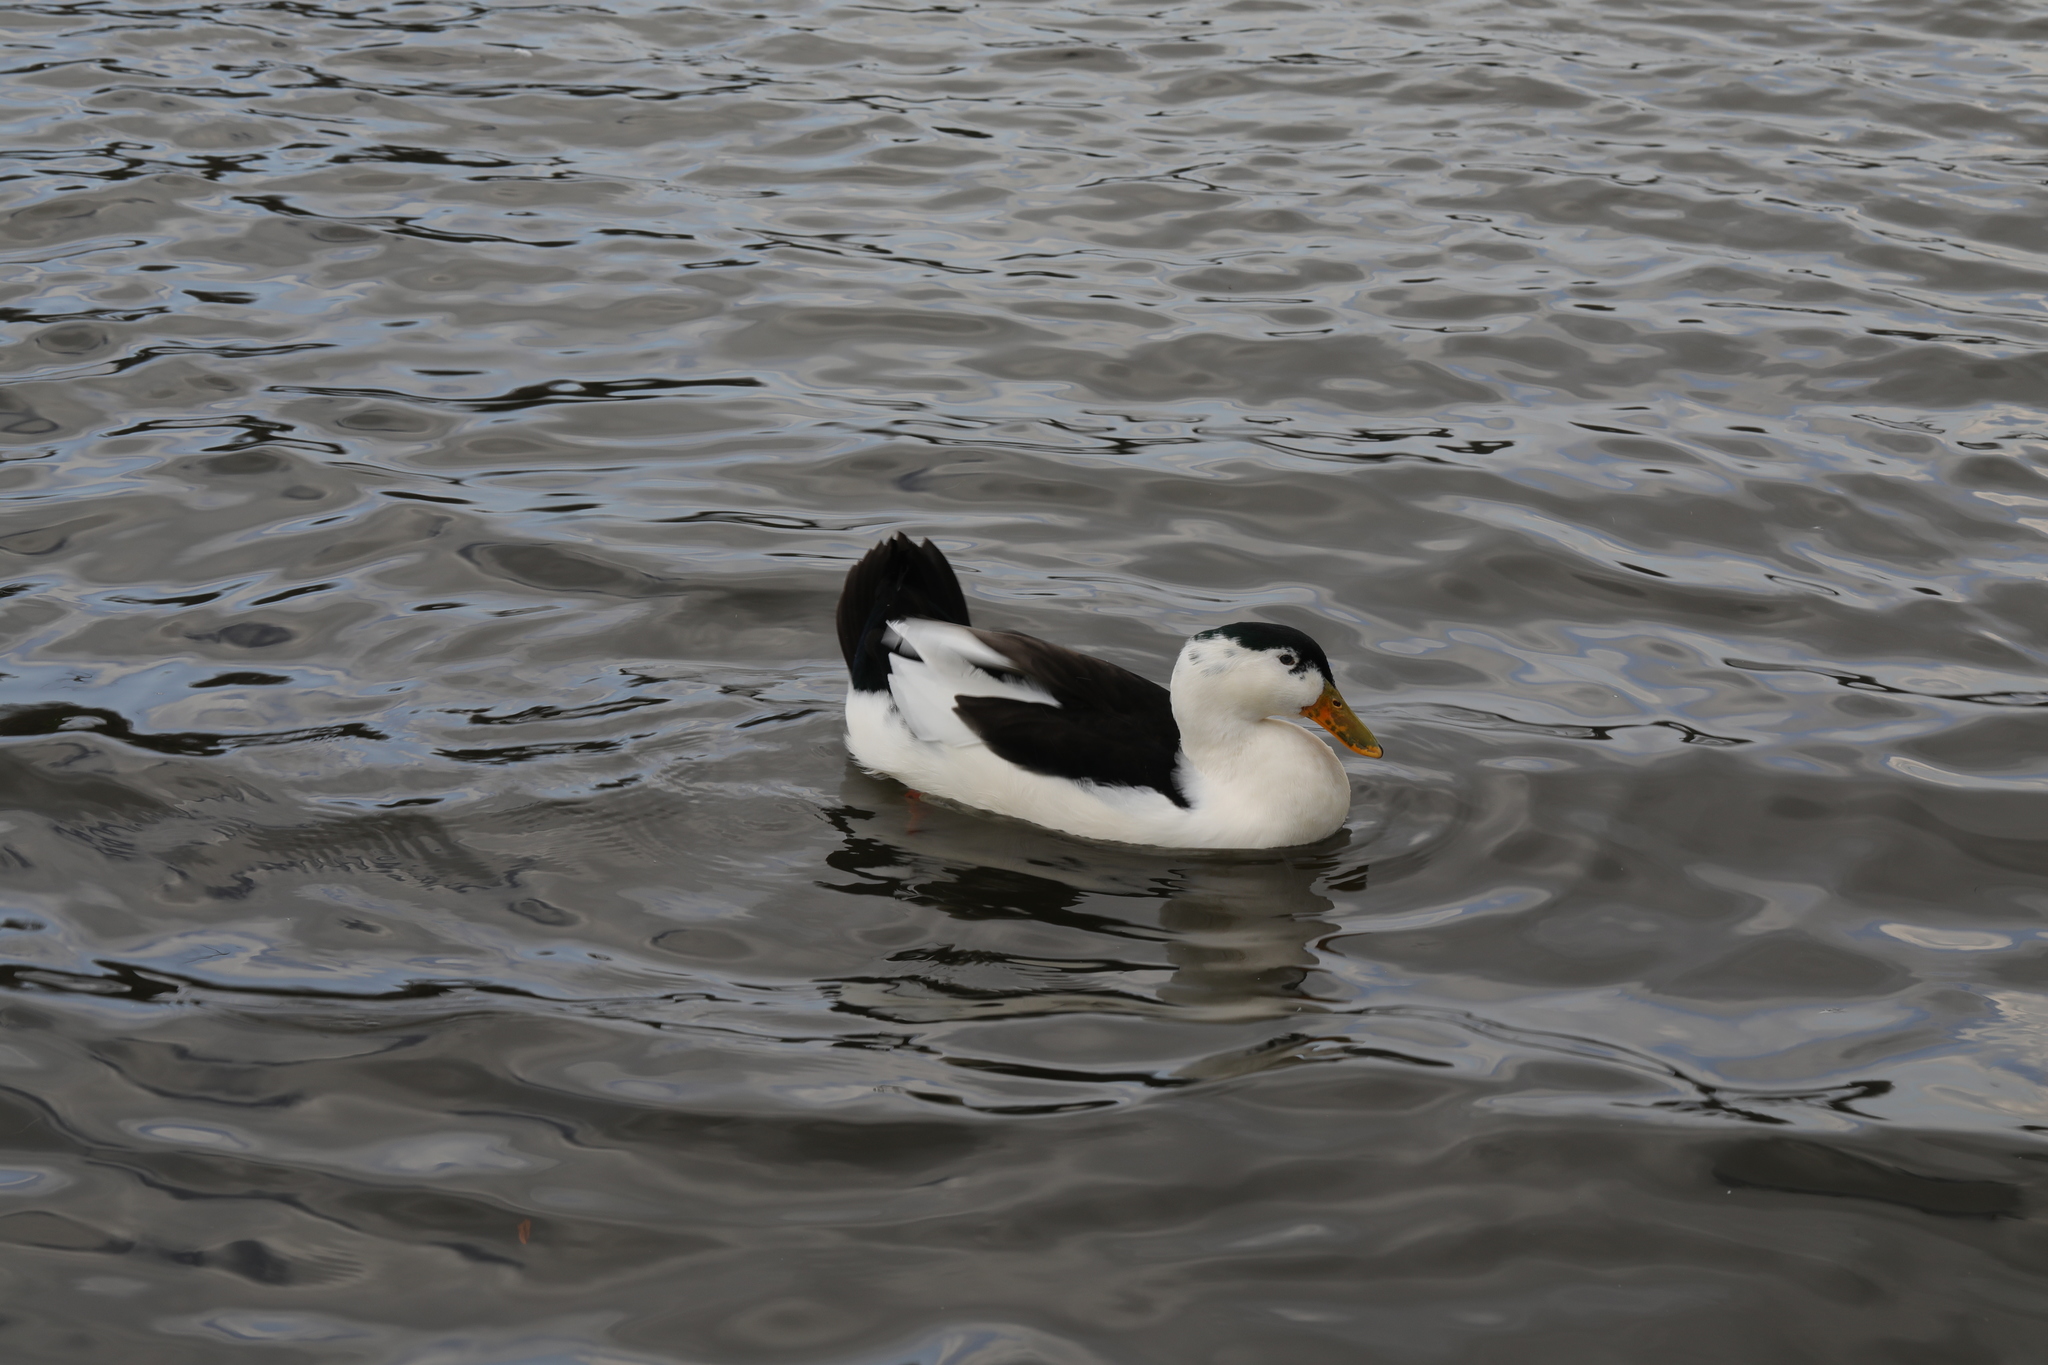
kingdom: Animalia
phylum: Chordata
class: Aves
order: Anseriformes
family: Anatidae
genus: Anas
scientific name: Anas platyrhynchos
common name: Mallard
